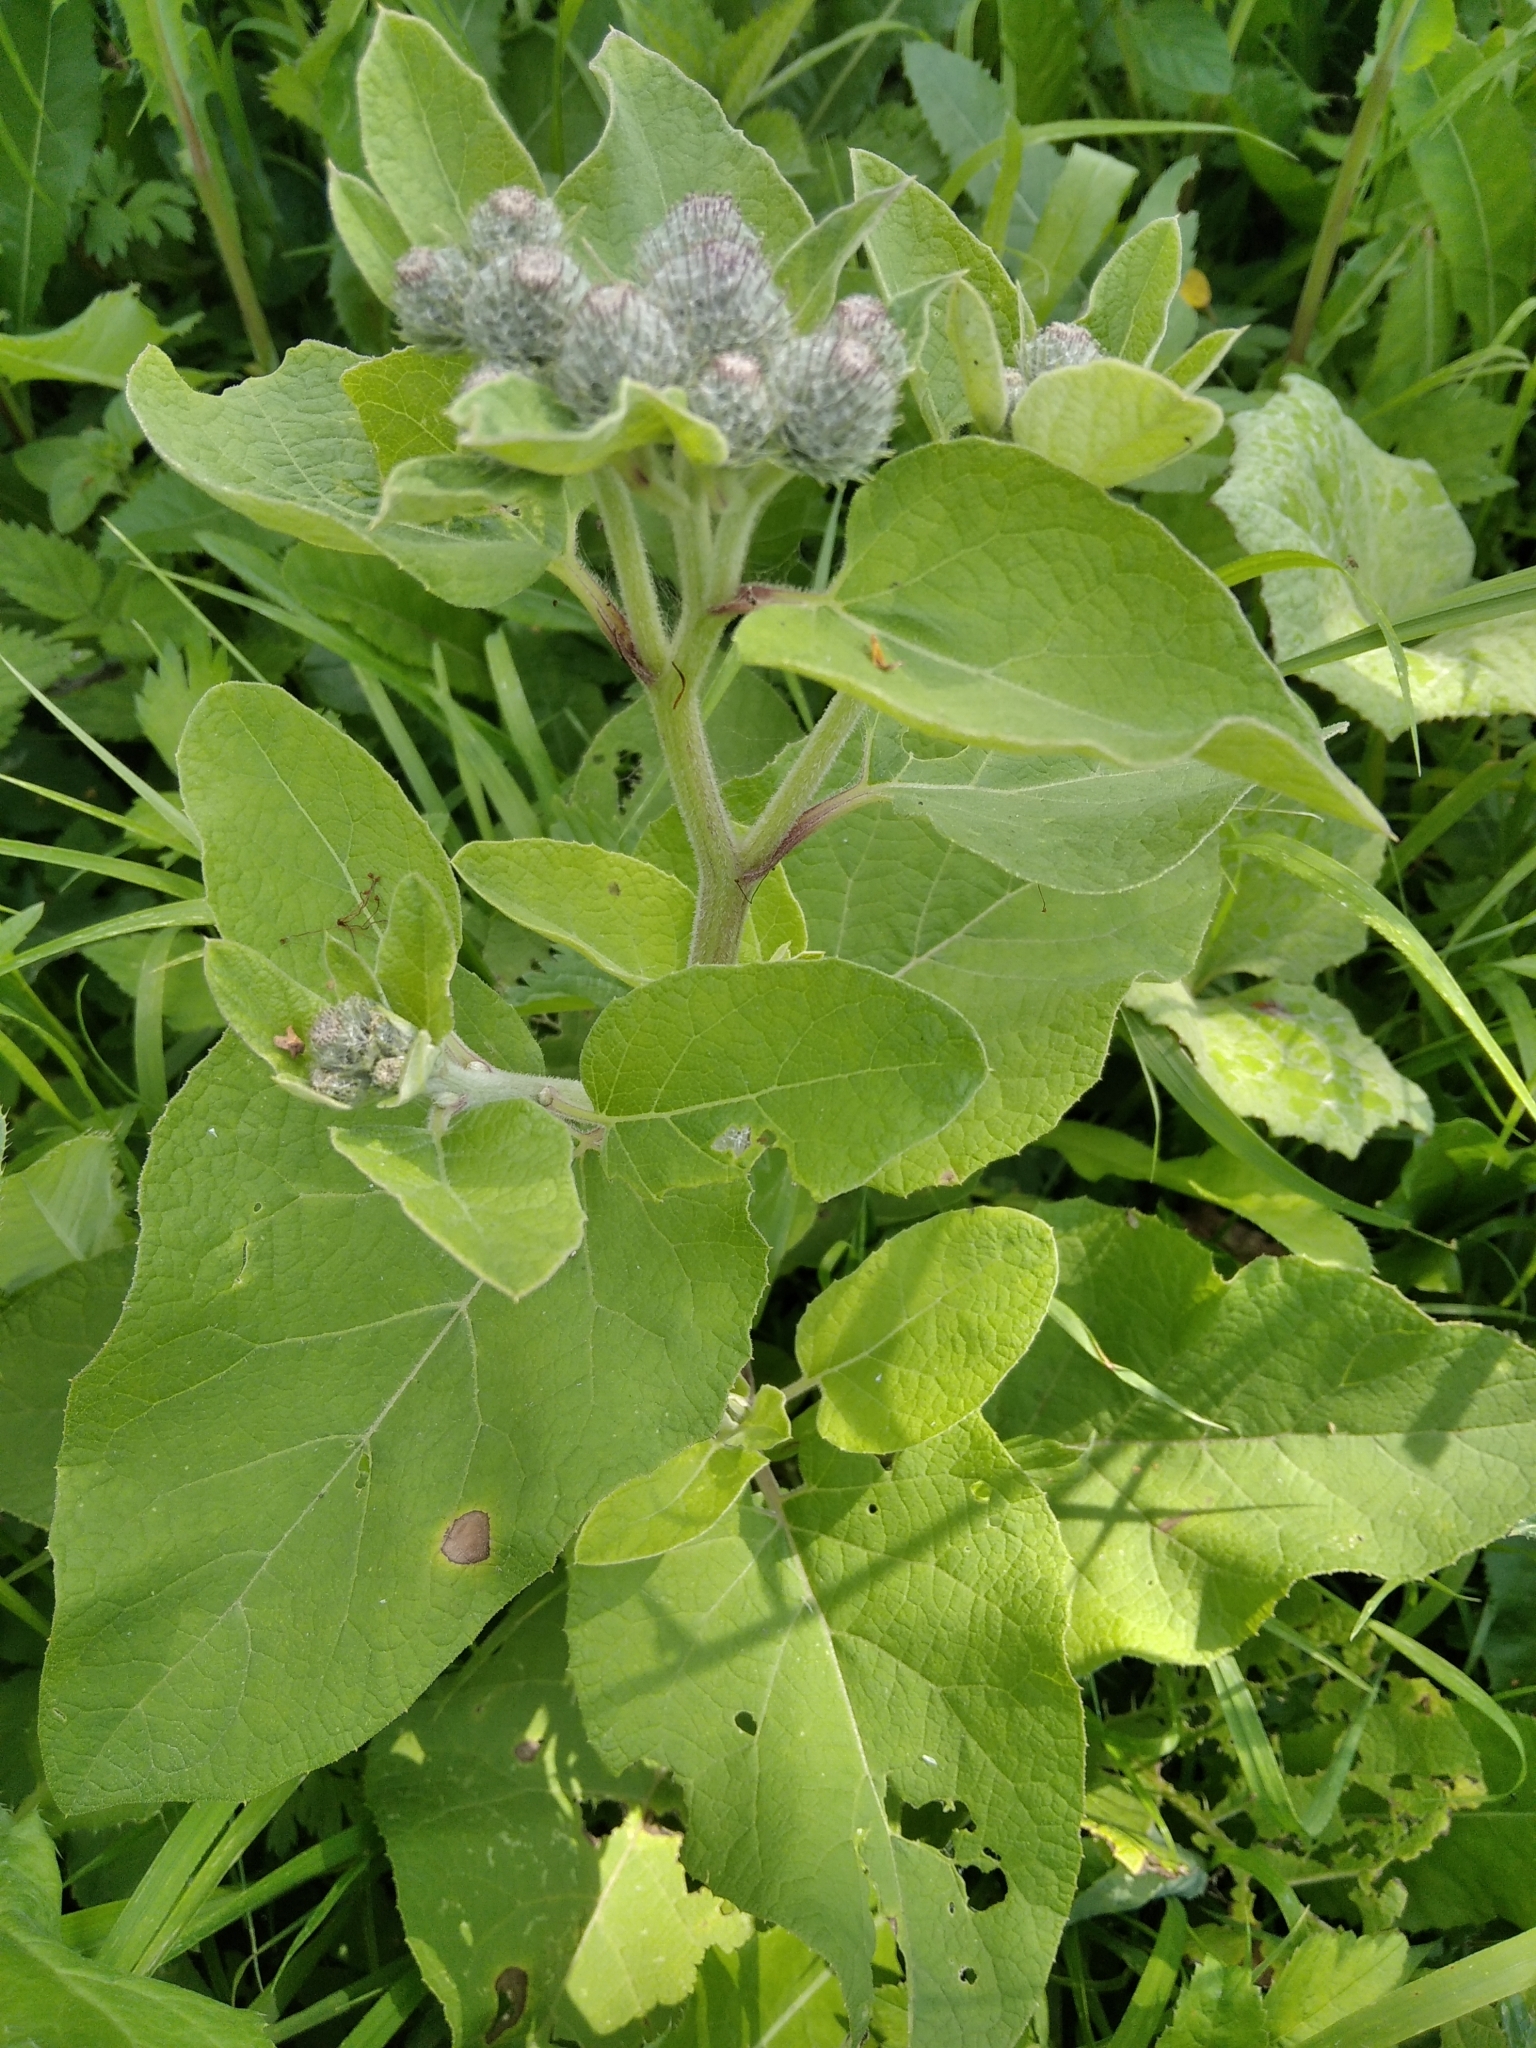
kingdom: Plantae
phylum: Tracheophyta
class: Magnoliopsida
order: Asterales
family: Asteraceae
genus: Arctium
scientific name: Arctium tomentosum
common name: Woolly burdock
